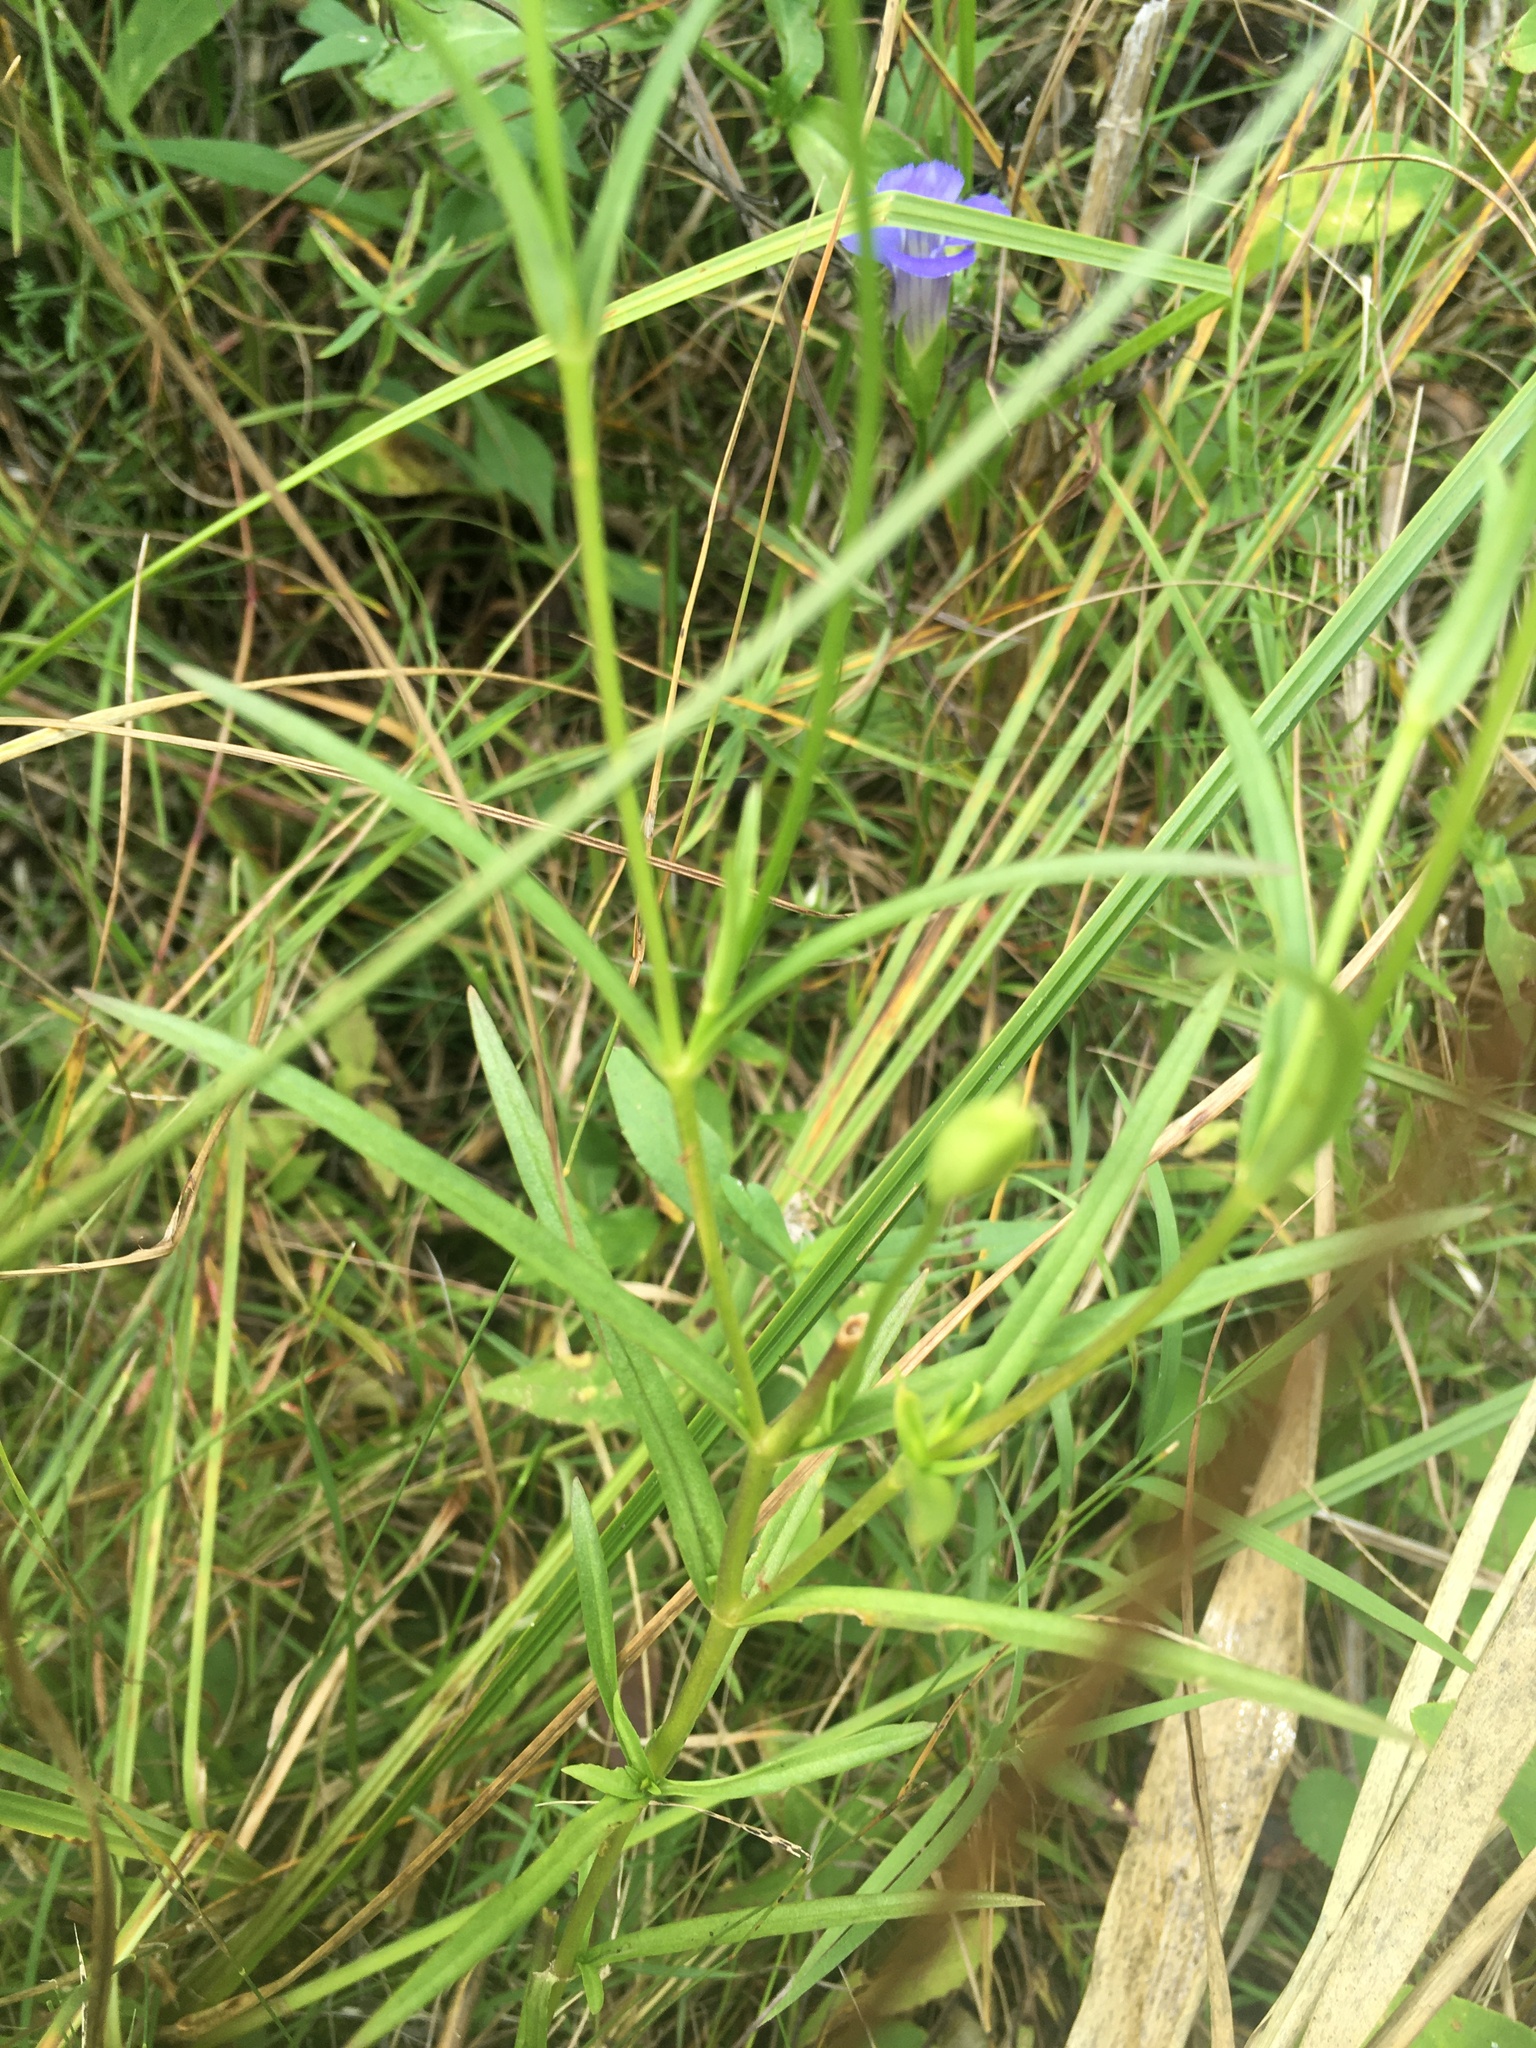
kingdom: Plantae
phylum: Tracheophyta
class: Magnoliopsida
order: Gentianales
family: Gentianaceae
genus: Gentianopsis
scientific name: Gentianopsis virgata
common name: Lesser fringed-gentian
